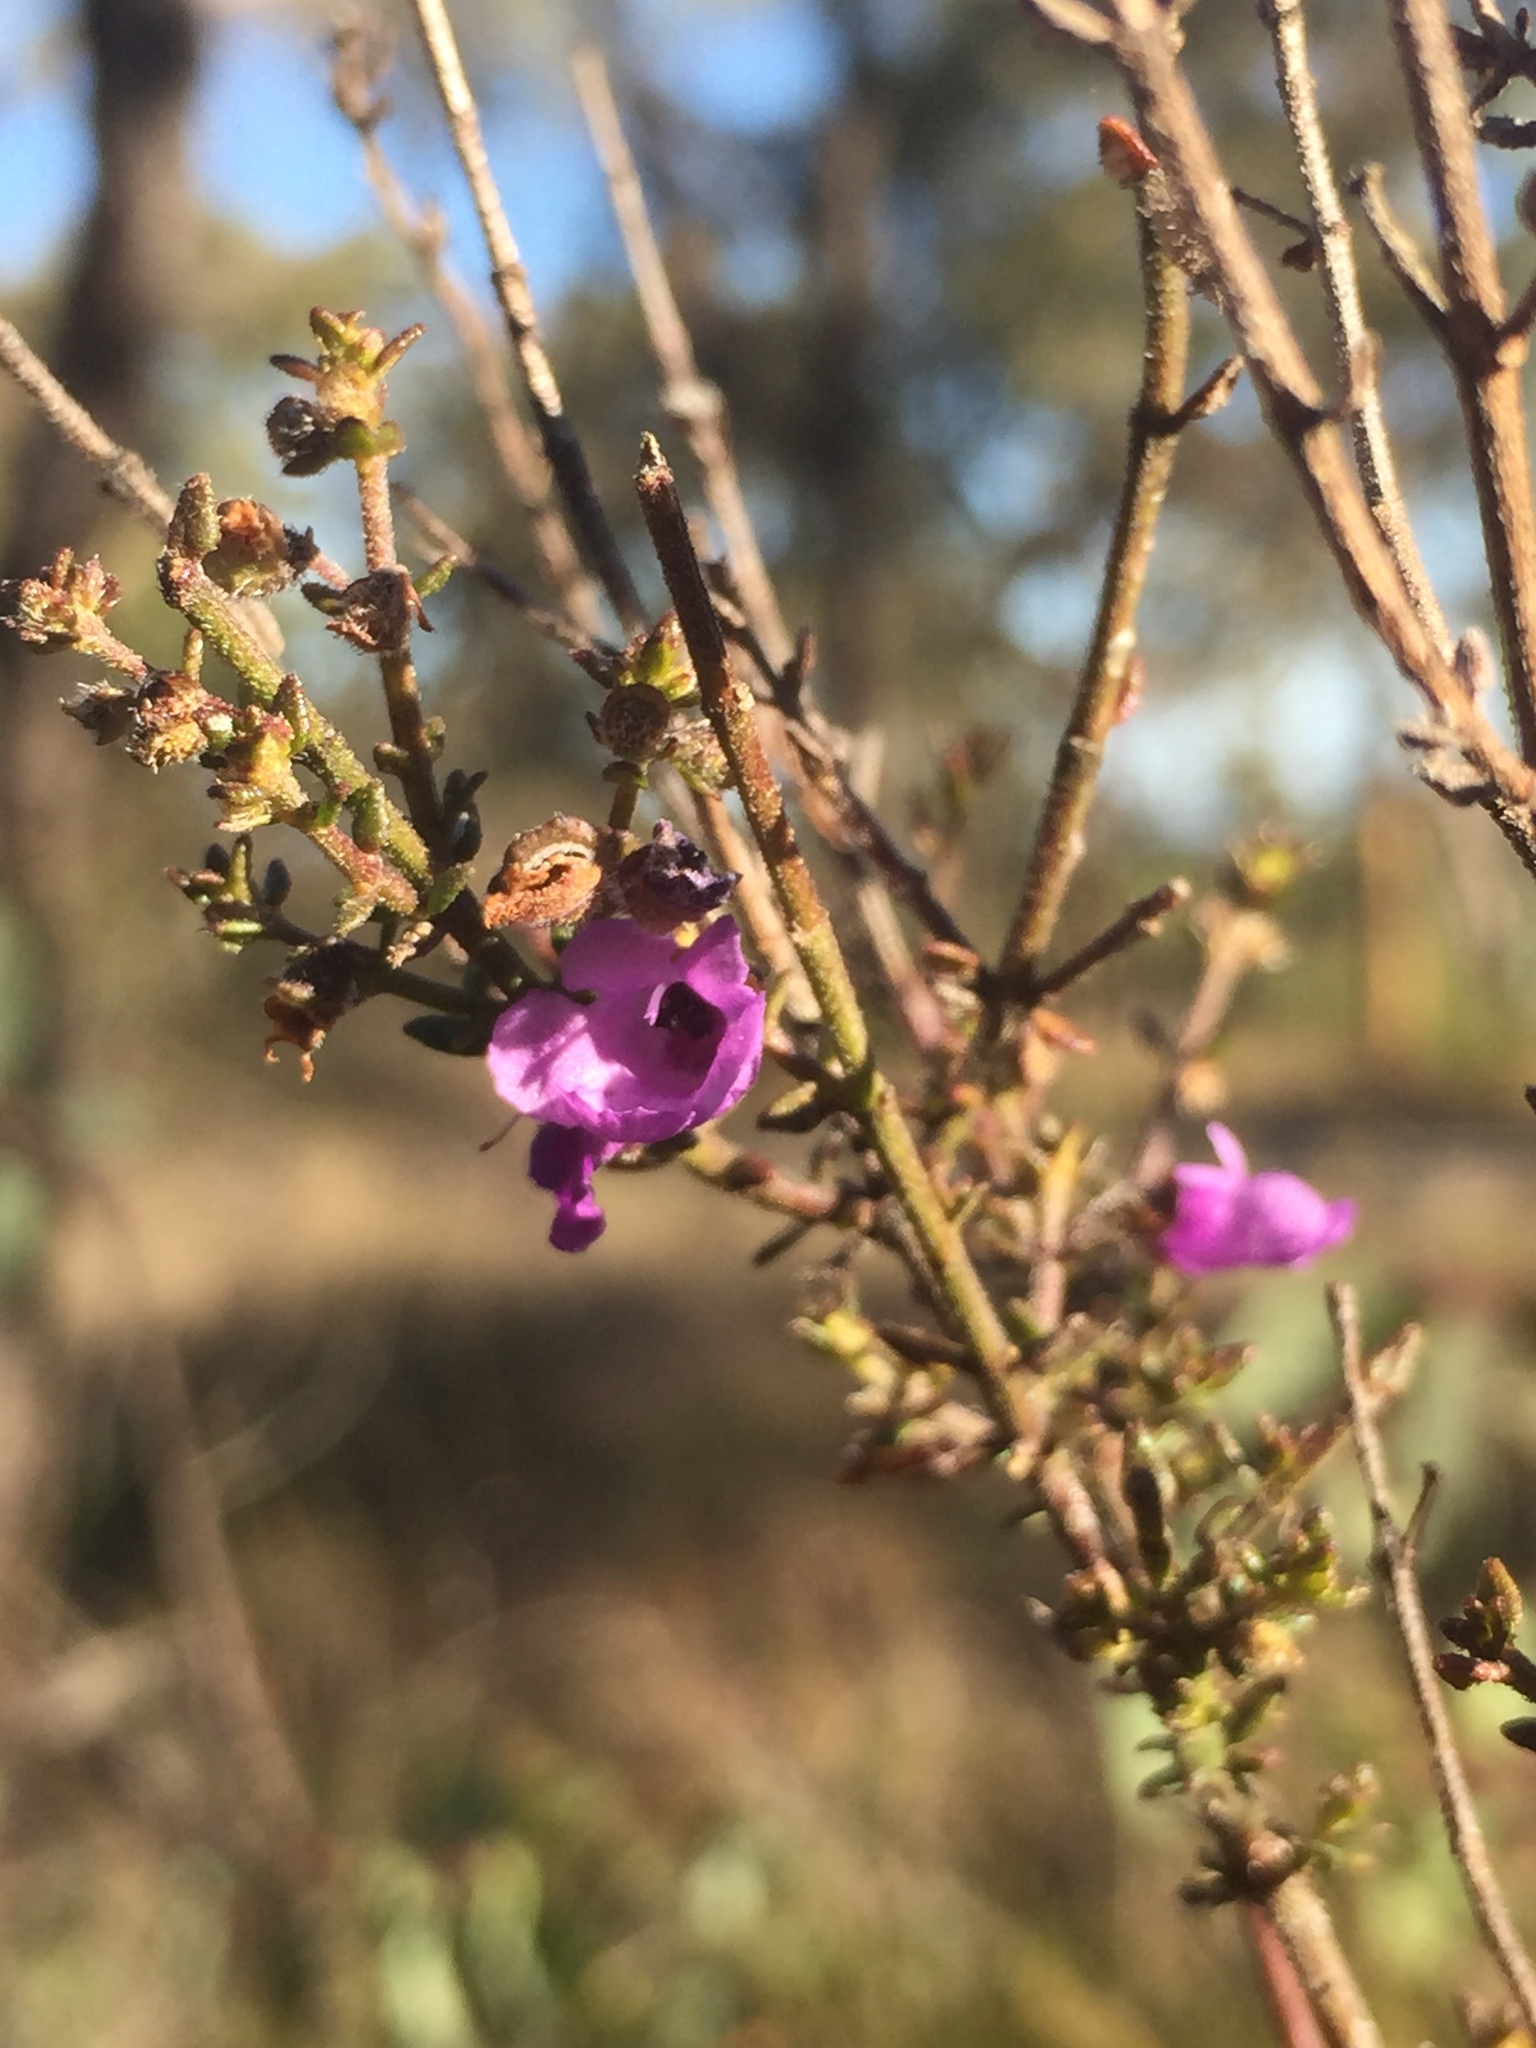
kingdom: Plantae
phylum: Tracheophyta
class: Magnoliopsida
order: Lamiales
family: Lamiaceae
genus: Prostanthera
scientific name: Prostanthera howelliae
